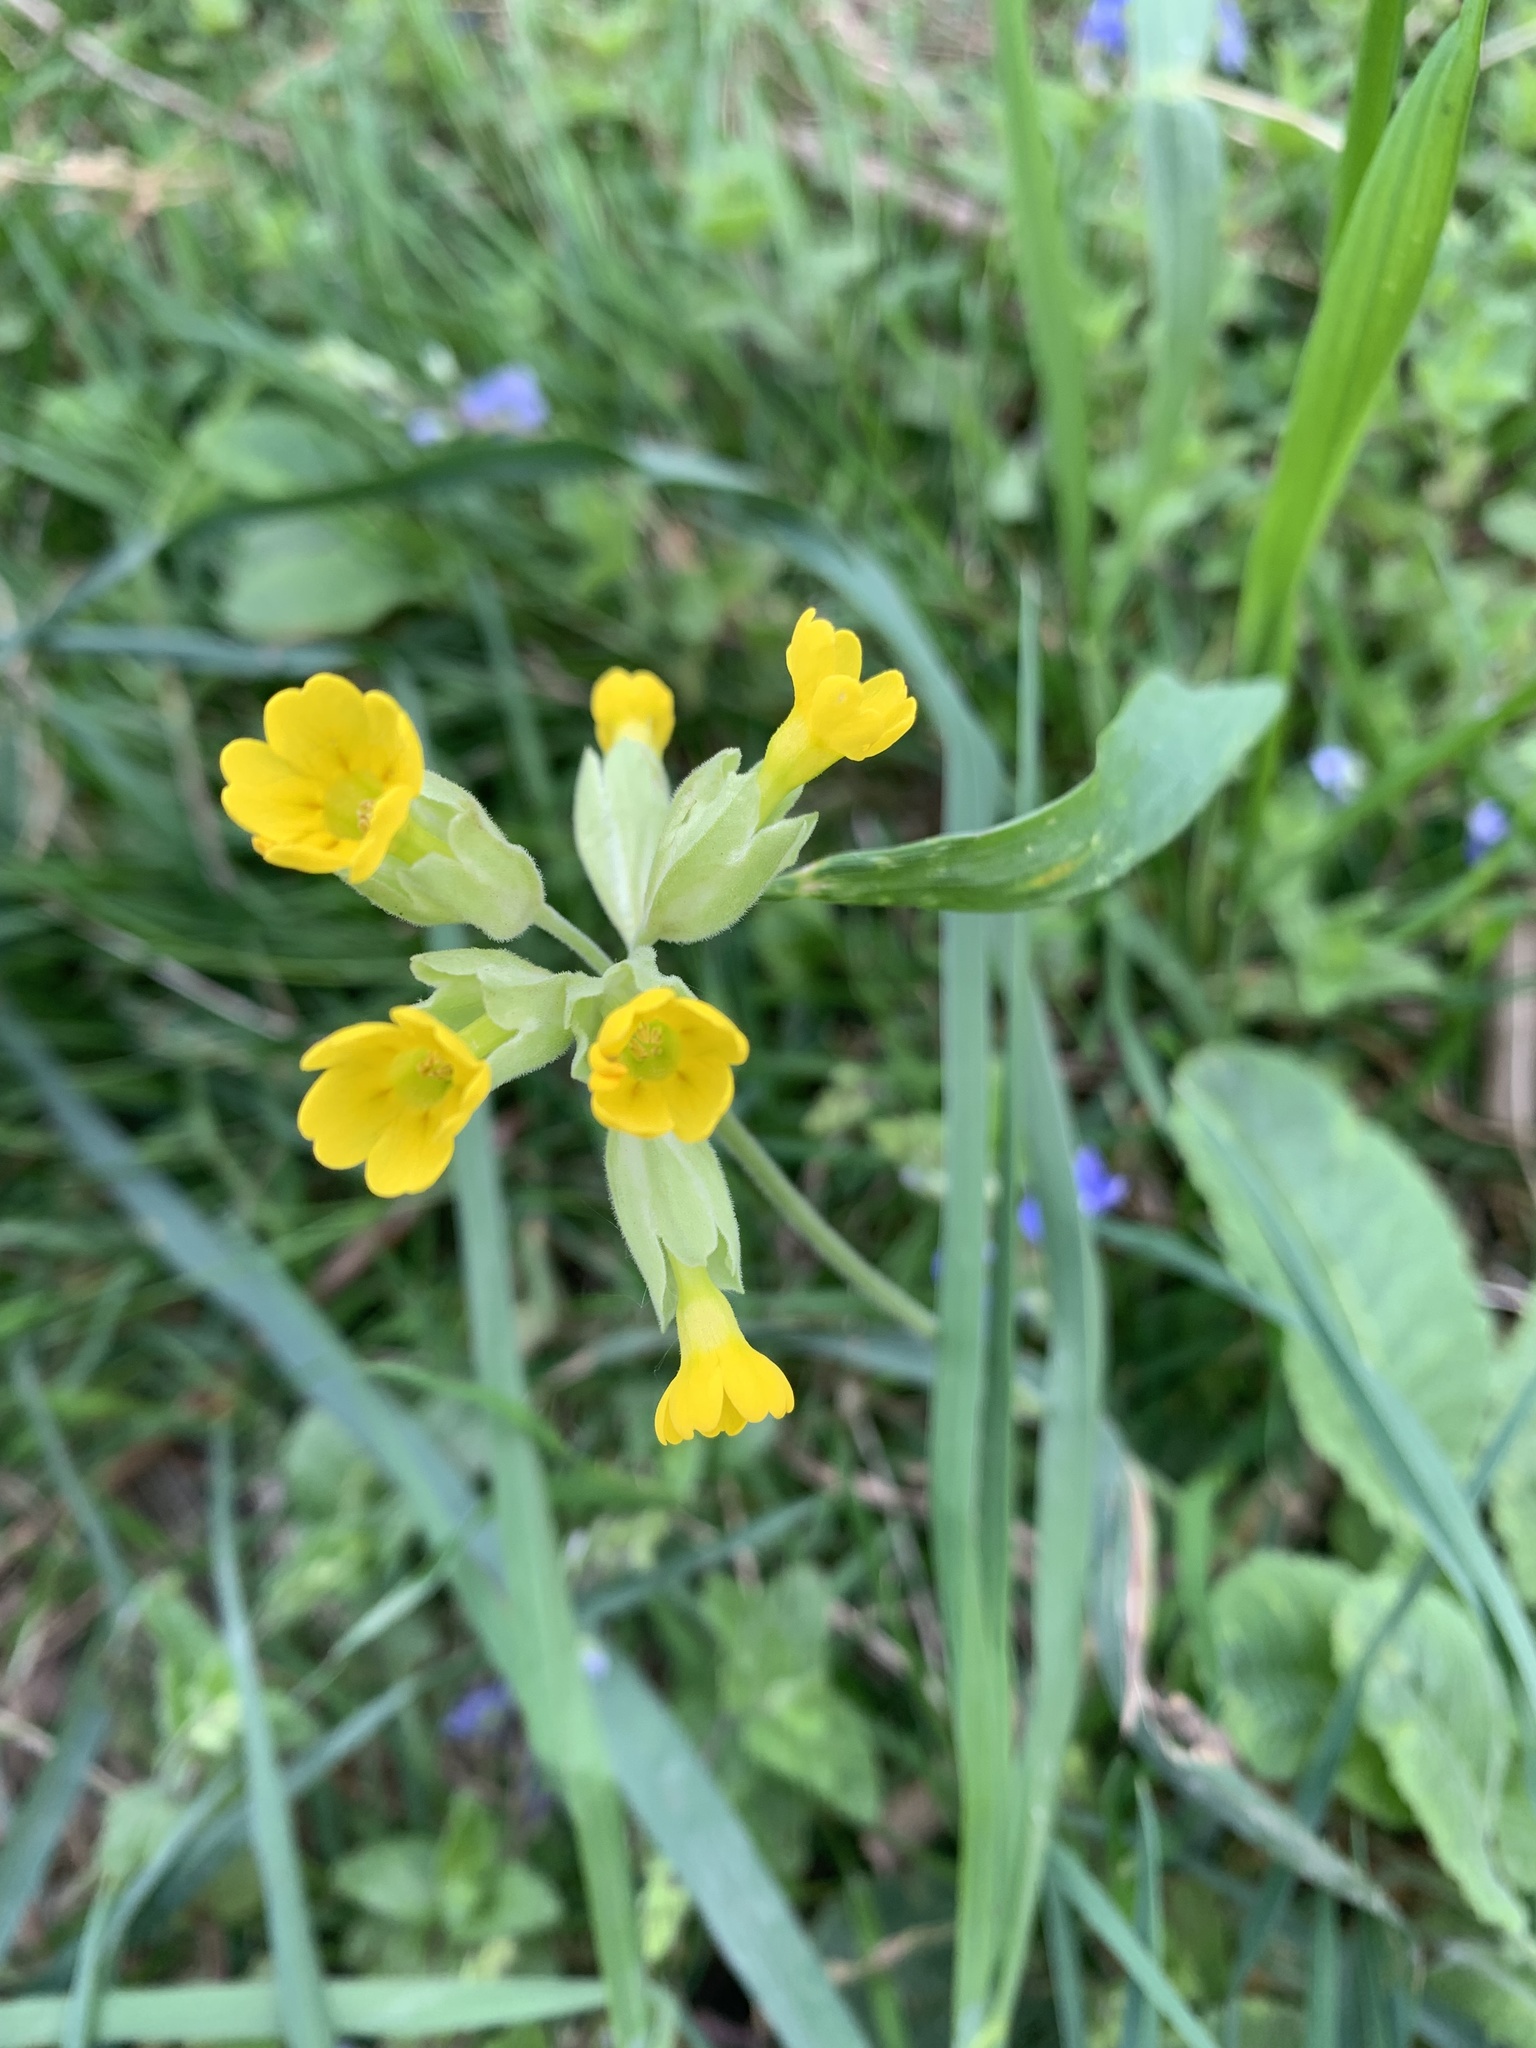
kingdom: Plantae
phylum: Tracheophyta
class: Magnoliopsida
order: Ericales
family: Primulaceae
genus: Primula
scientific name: Primula veris
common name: Cowslip
